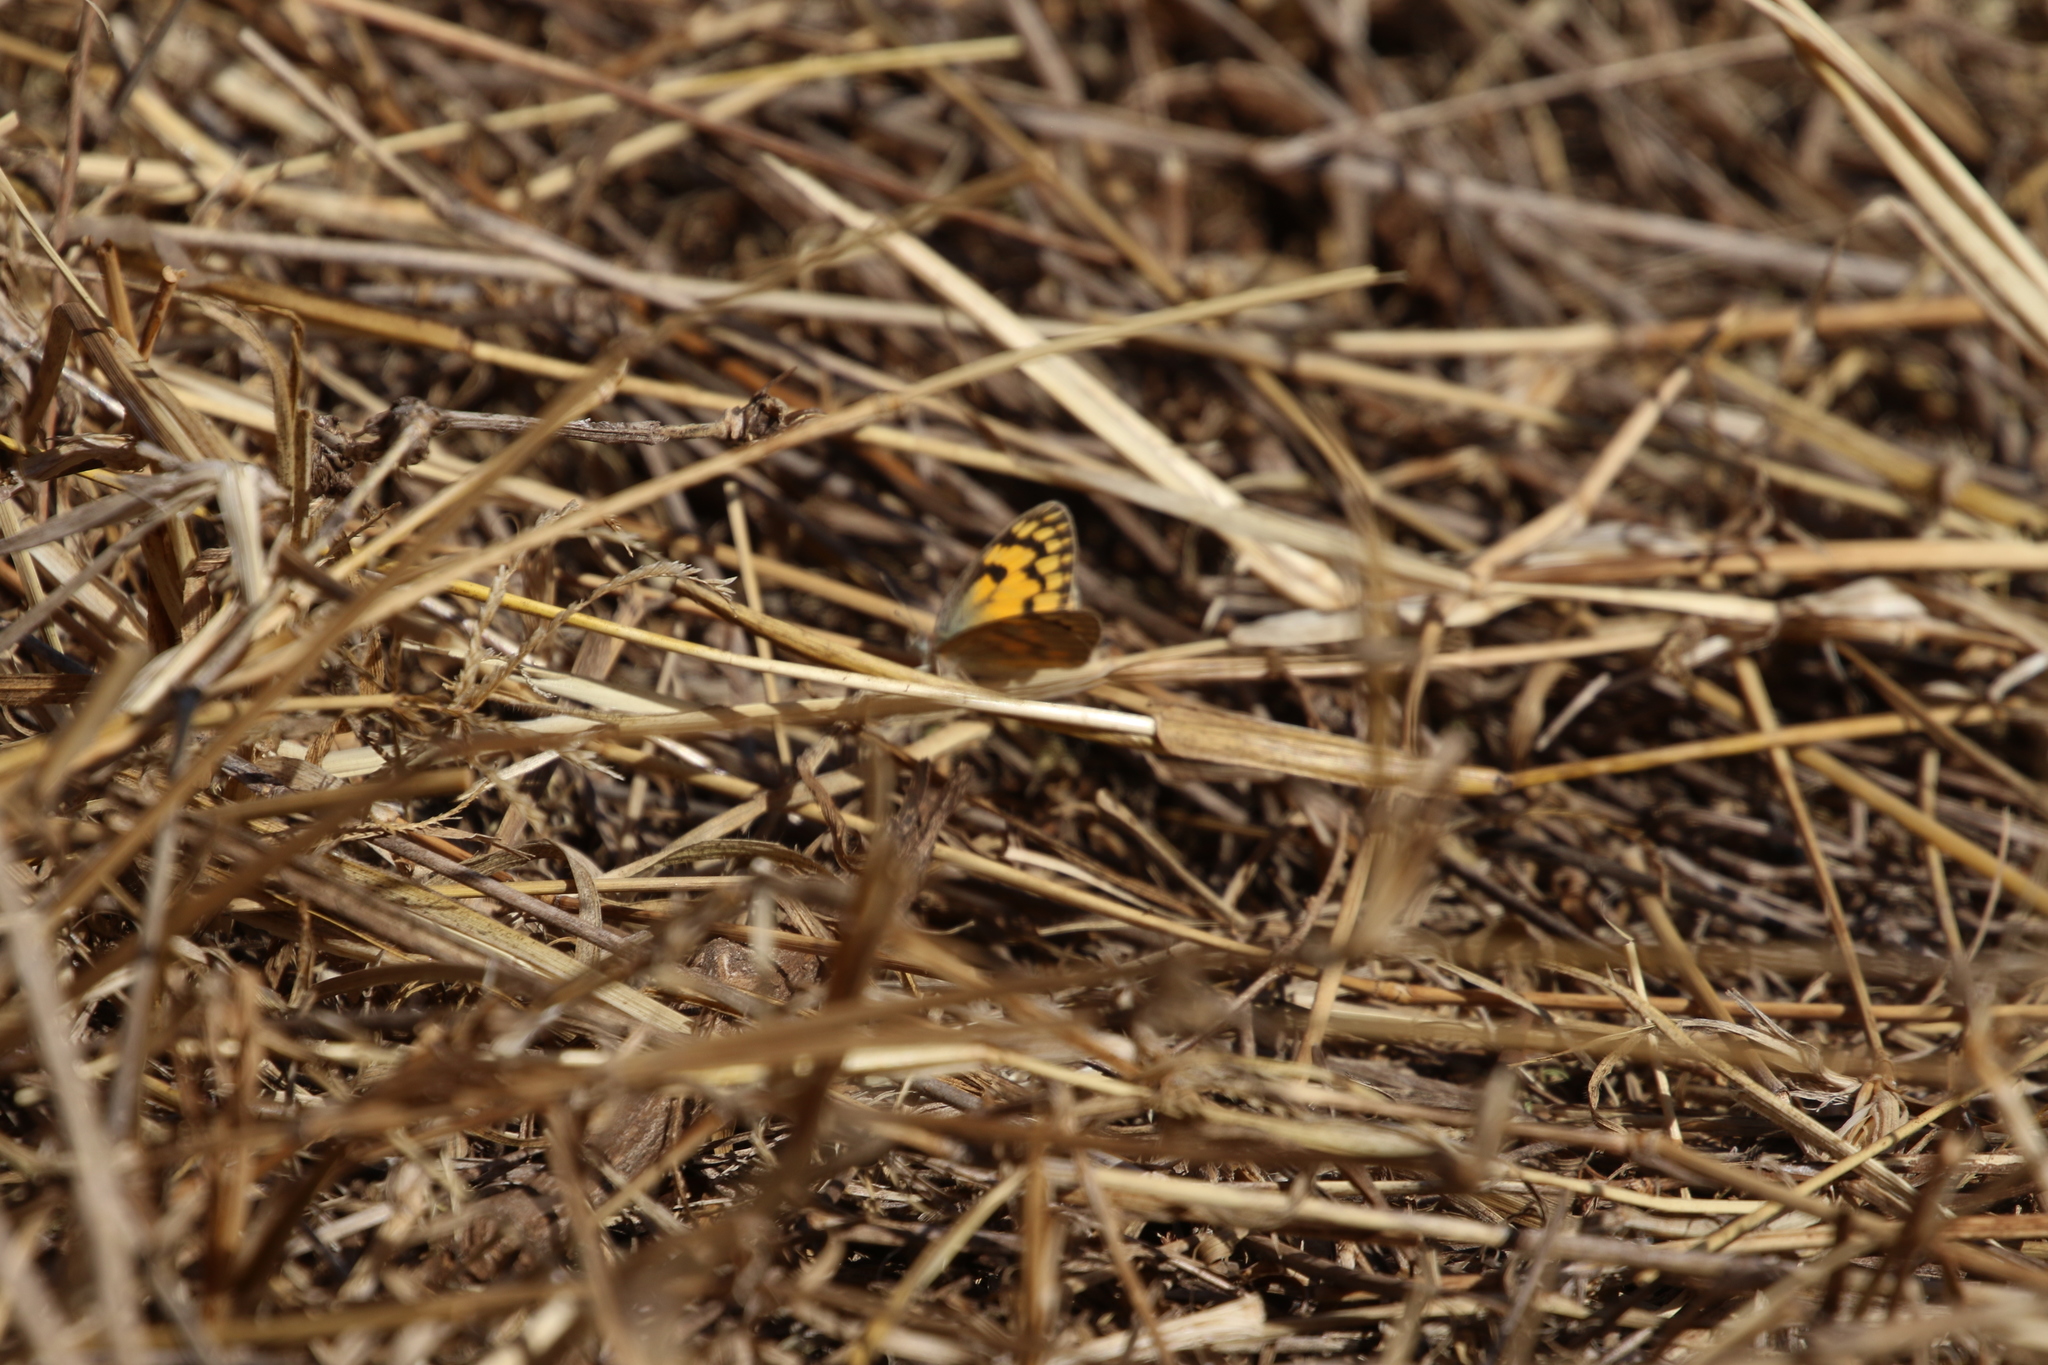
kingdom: Animalia
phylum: Arthropoda
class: Insecta
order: Lepidoptera
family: Pieridae
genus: Colotis
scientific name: Colotis aurigineus
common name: African golden arab
